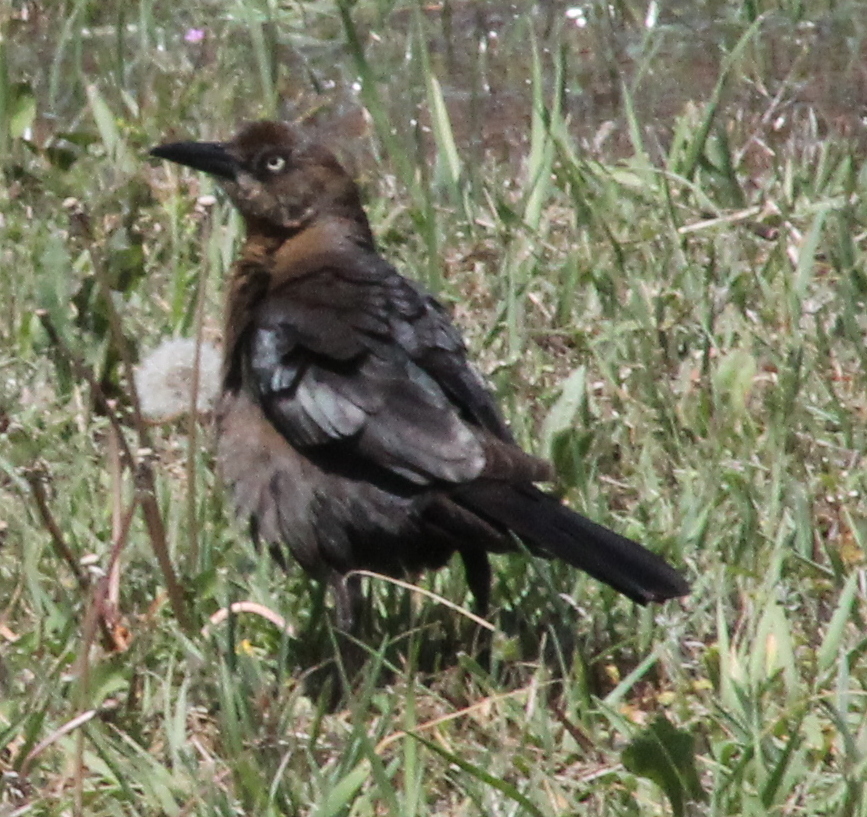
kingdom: Animalia
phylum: Chordata
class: Aves
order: Passeriformes
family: Icteridae
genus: Quiscalus
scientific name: Quiscalus mexicanus
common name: Great-tailed grackle
